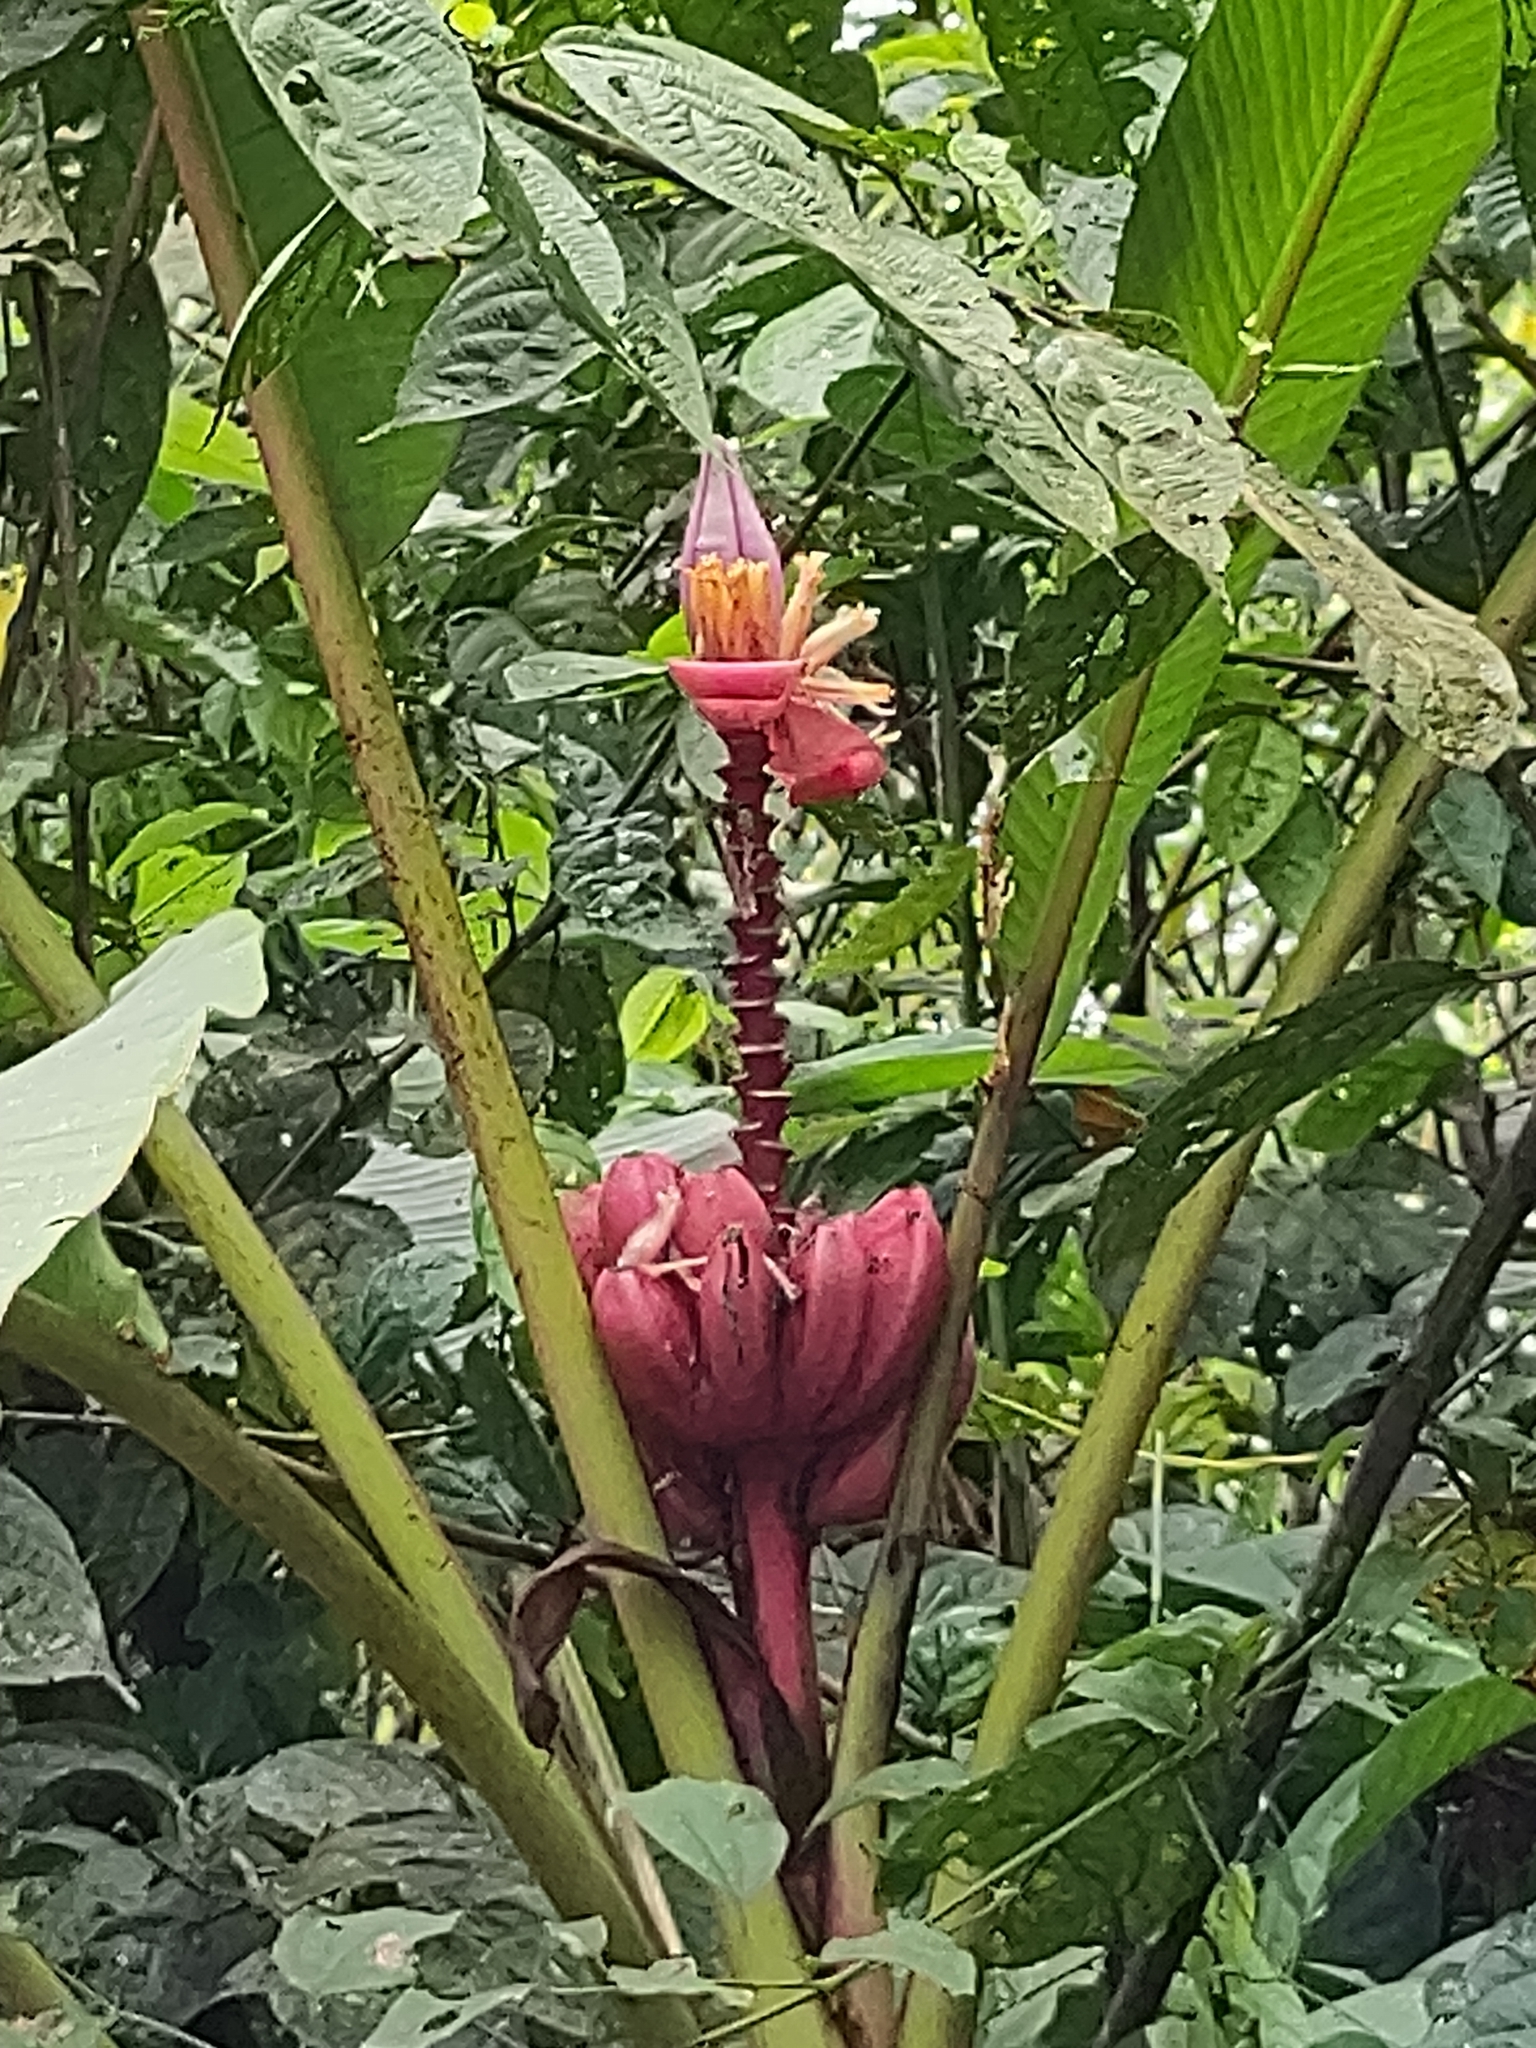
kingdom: Plantae
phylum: Tracheophyta
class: Liliopsida
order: Zingiberales
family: Musaceae
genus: Musa
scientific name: Musa velutina
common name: Pink velvet banana
